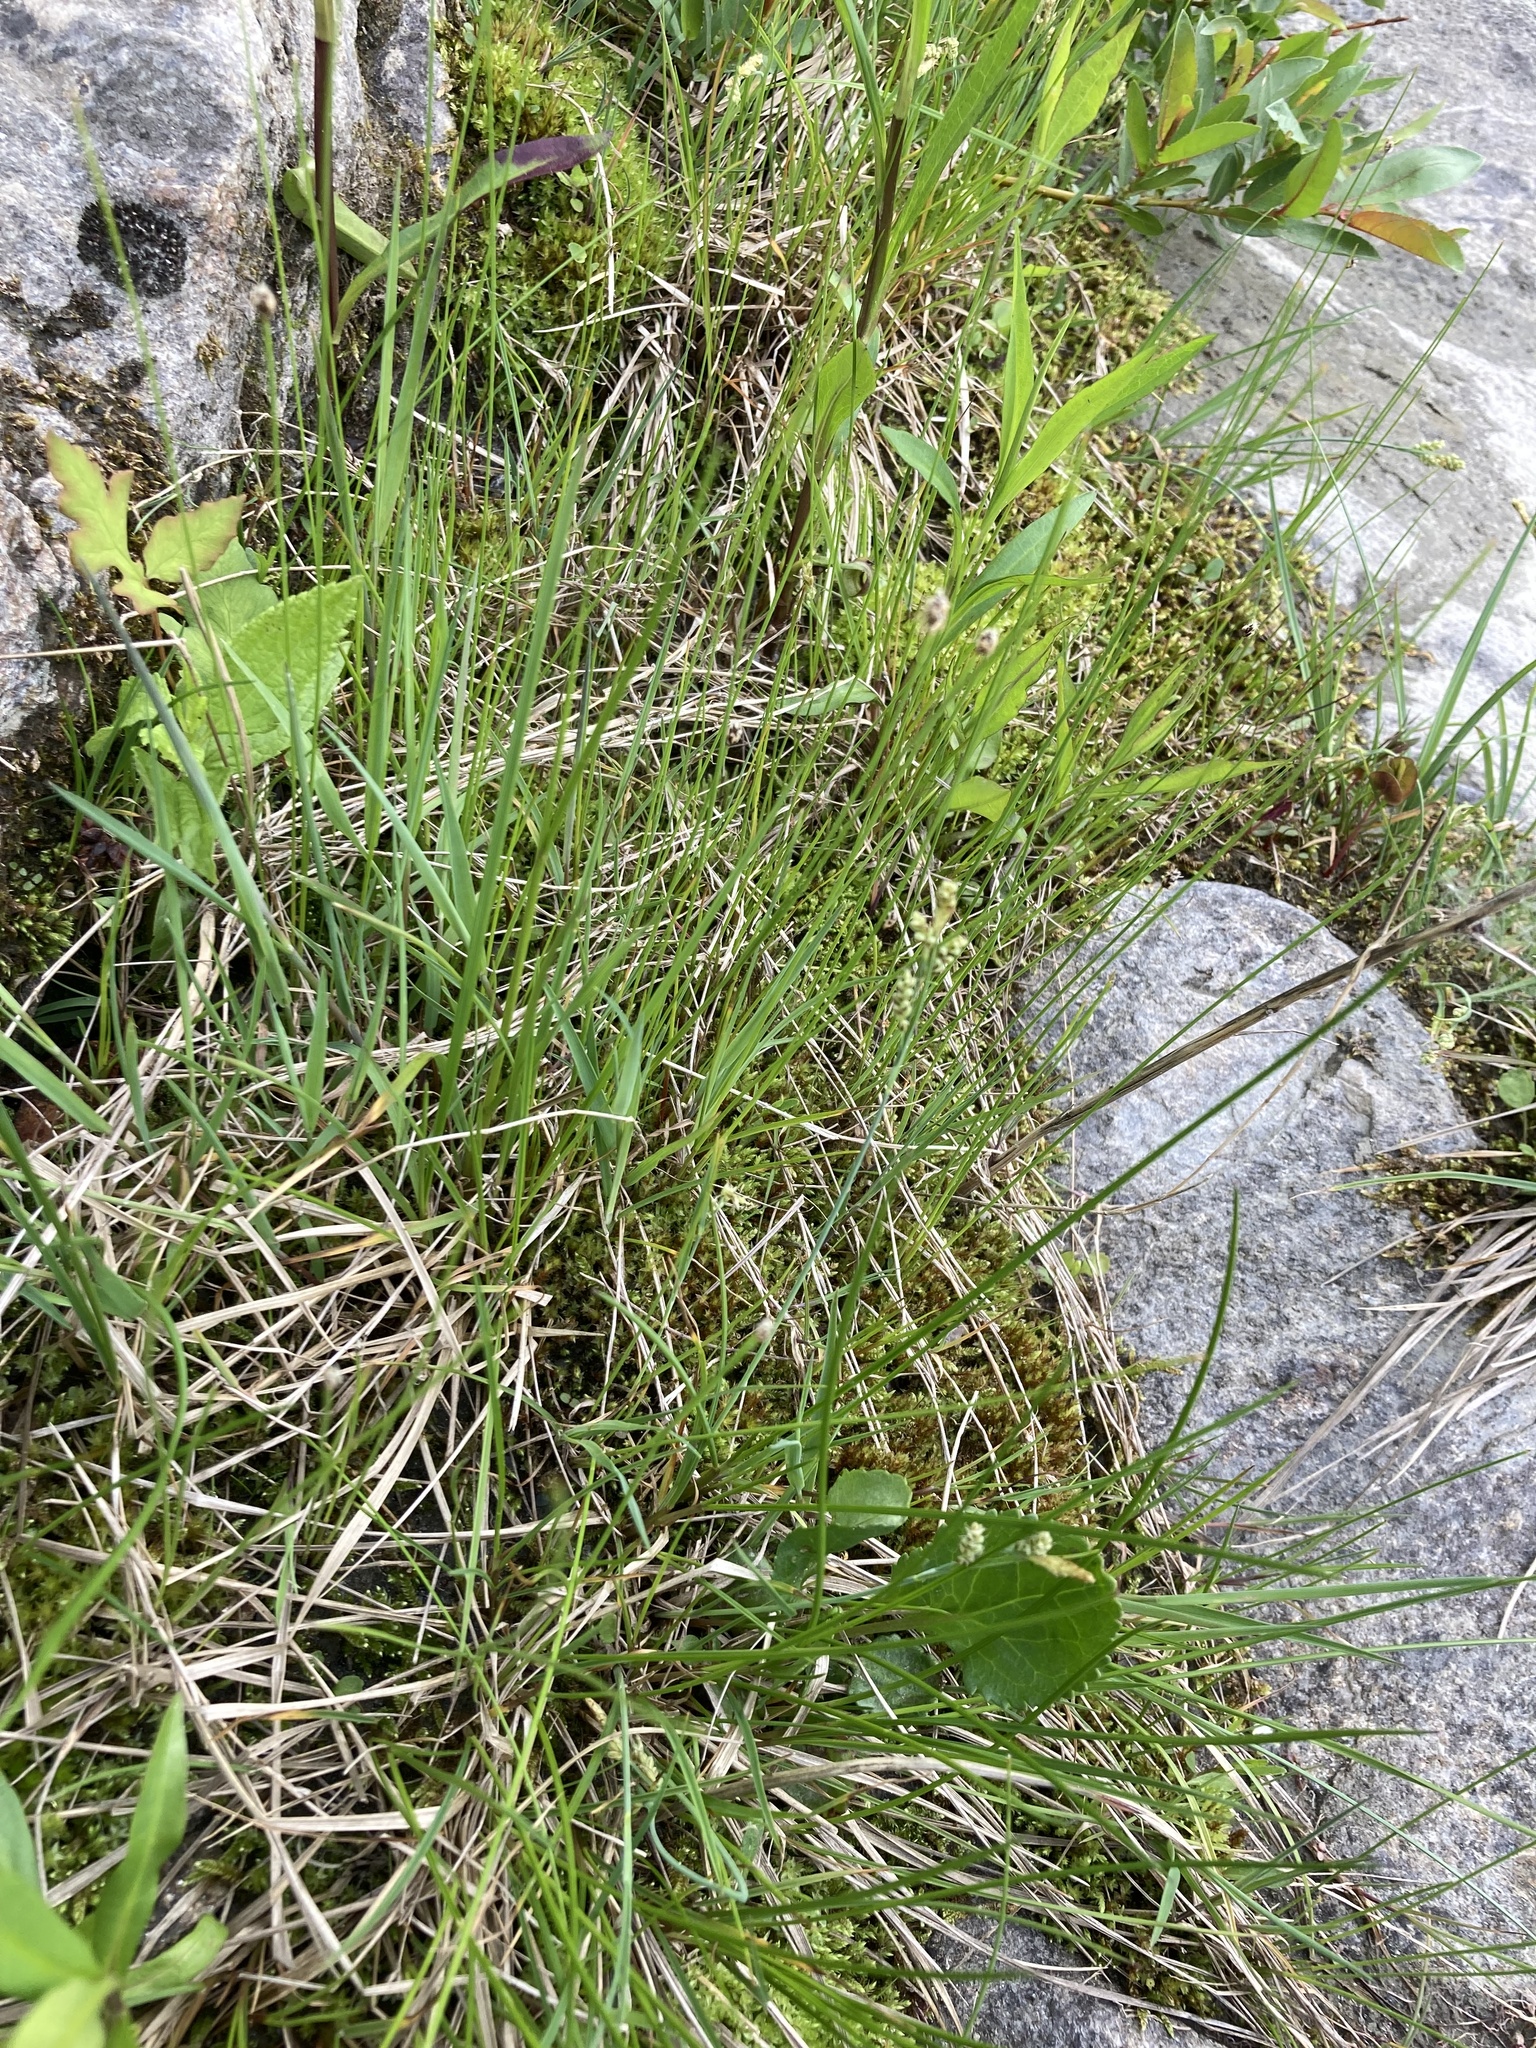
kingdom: Plantae
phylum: Tracheophyta
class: Liliopsida
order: Poales
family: Cyperaceae
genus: Carex
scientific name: Carex garberi
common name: Elk sedge
